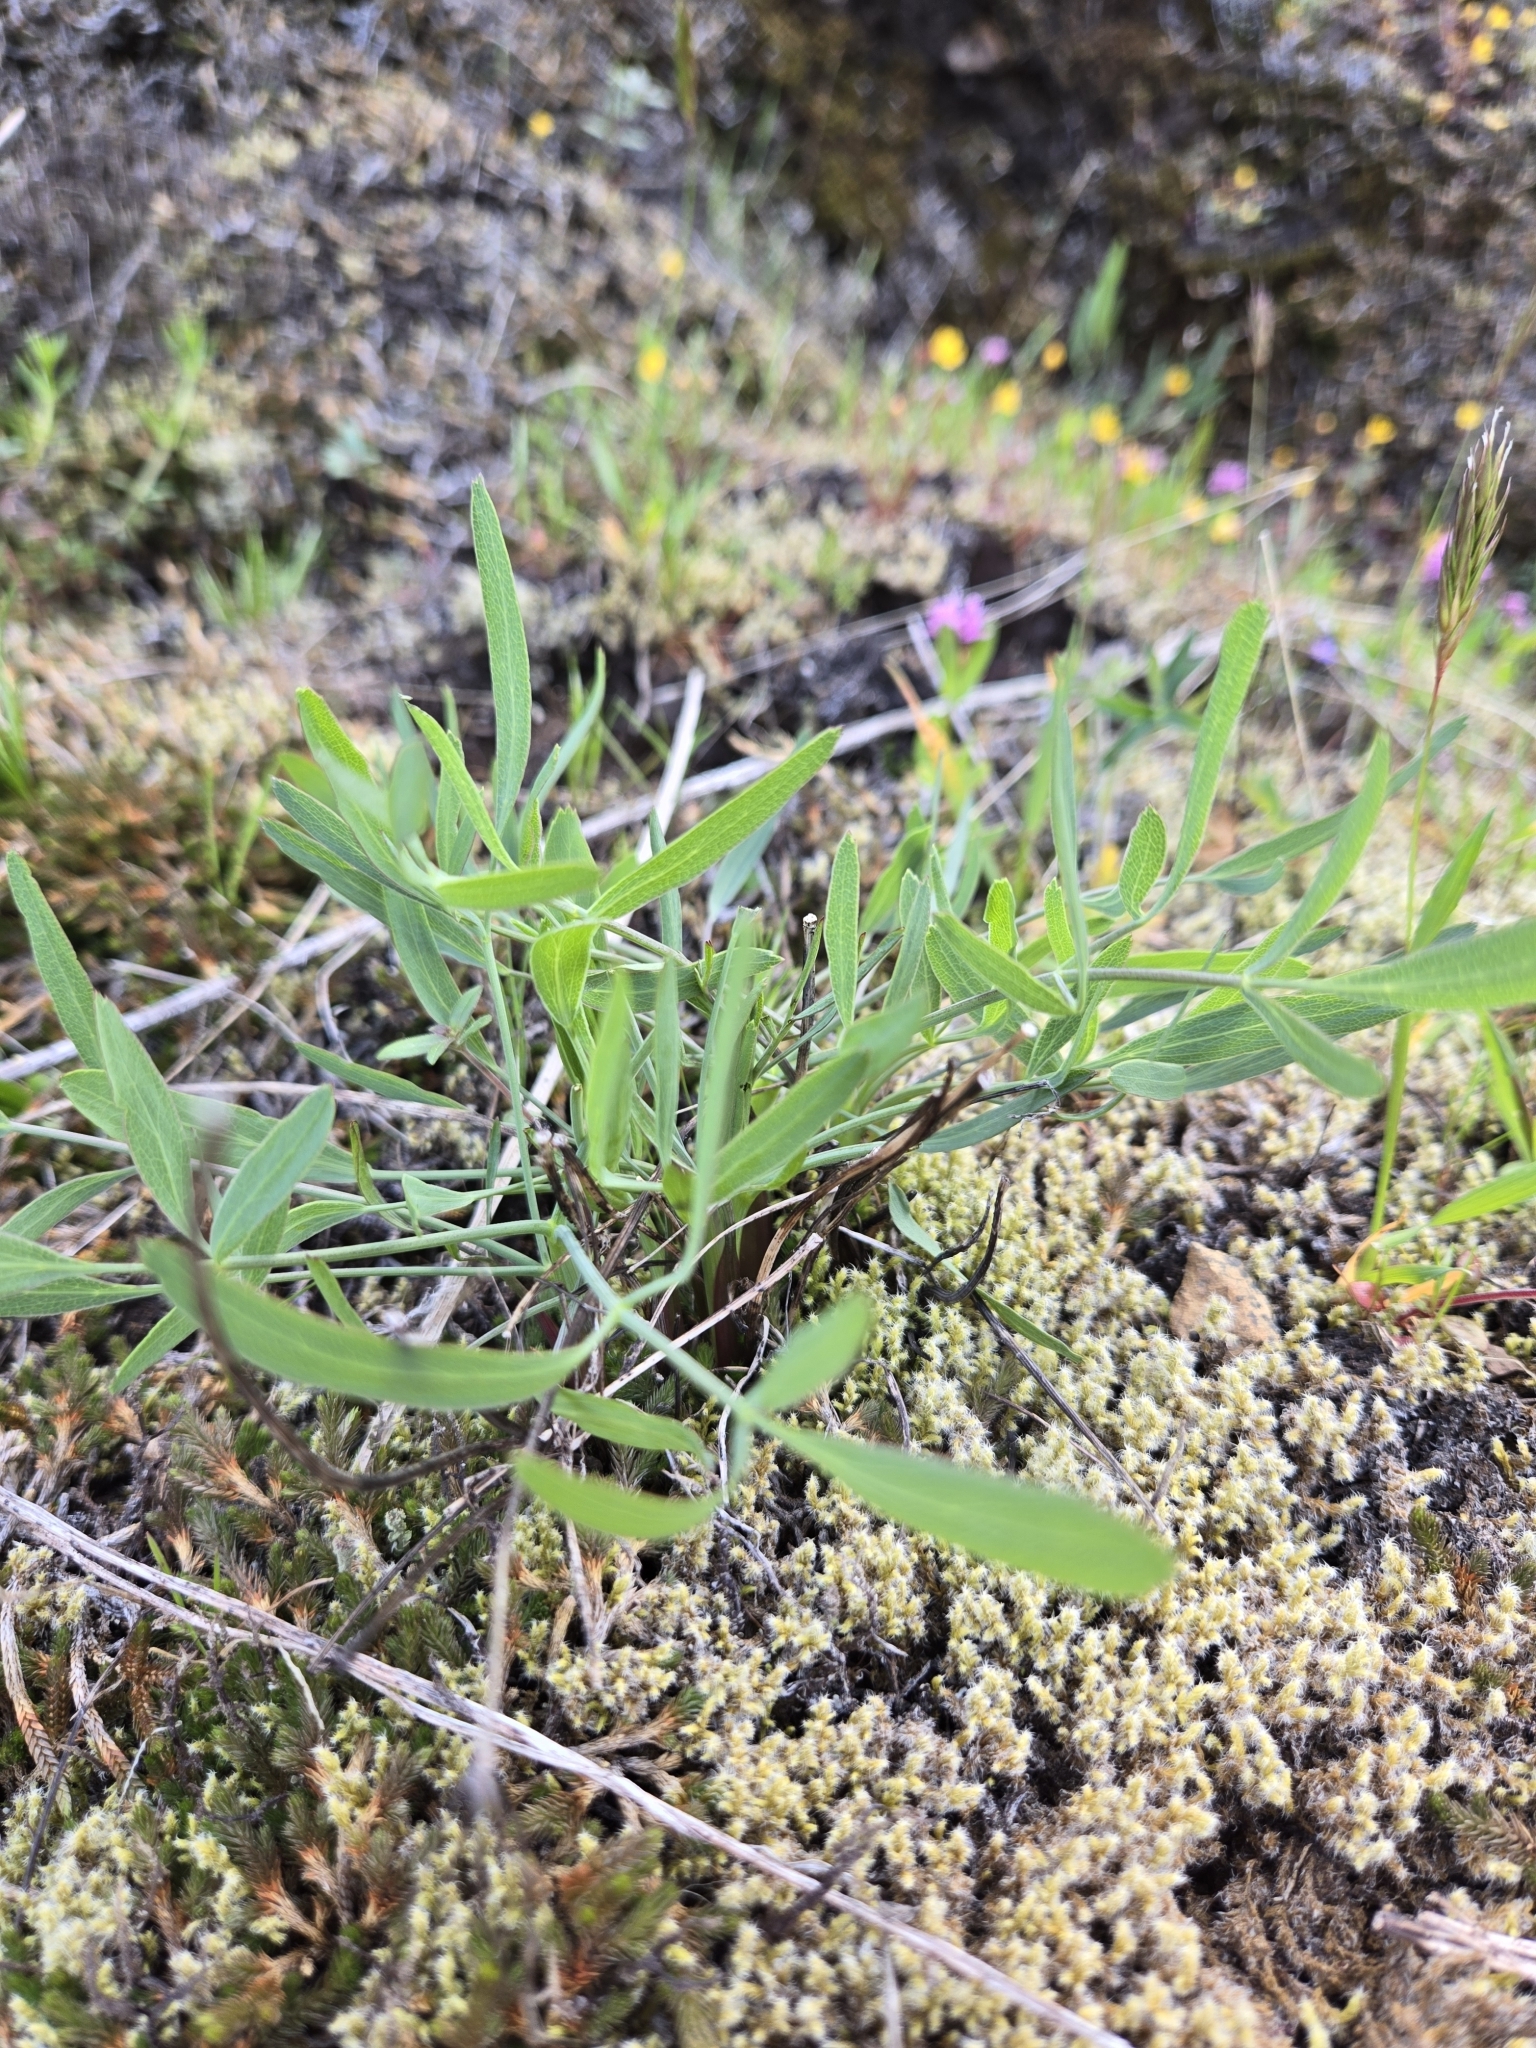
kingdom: Plantae
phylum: Tracheophyta
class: Magnoliopsida
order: Apiales
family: Apiaceae
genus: Lomatium
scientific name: Lomatium nudicaule
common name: Pestle lomatium
